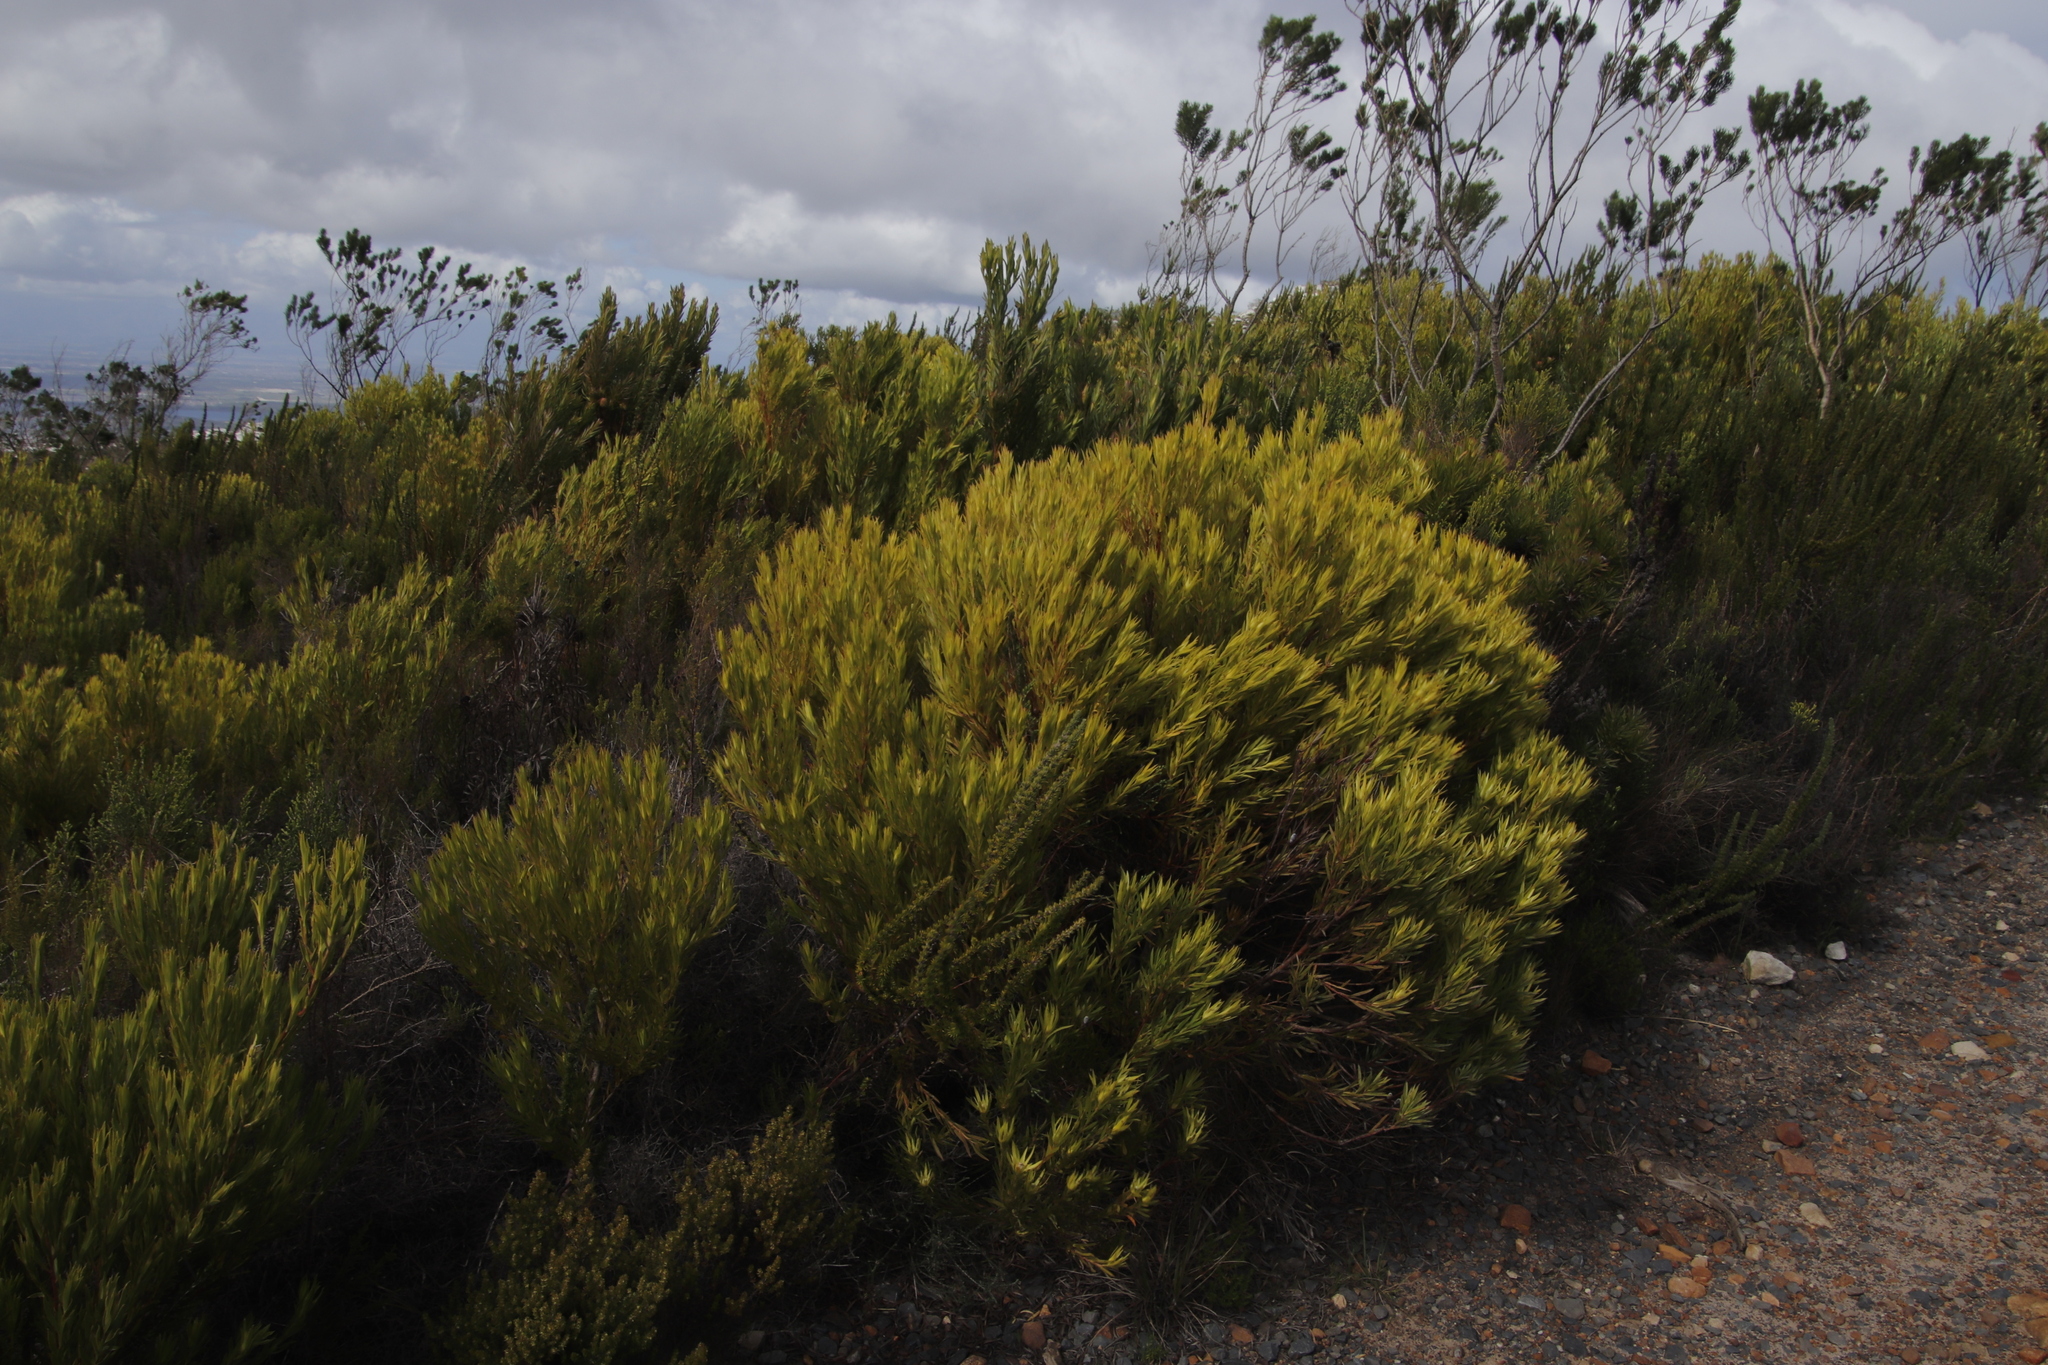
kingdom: Plantae
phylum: Tracheophyta
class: Magnoliopsida
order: Proteales
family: Proteaceae
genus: Leucadendron
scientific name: Leucadendron xanthoconus
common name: Sickle-leaf conebush
